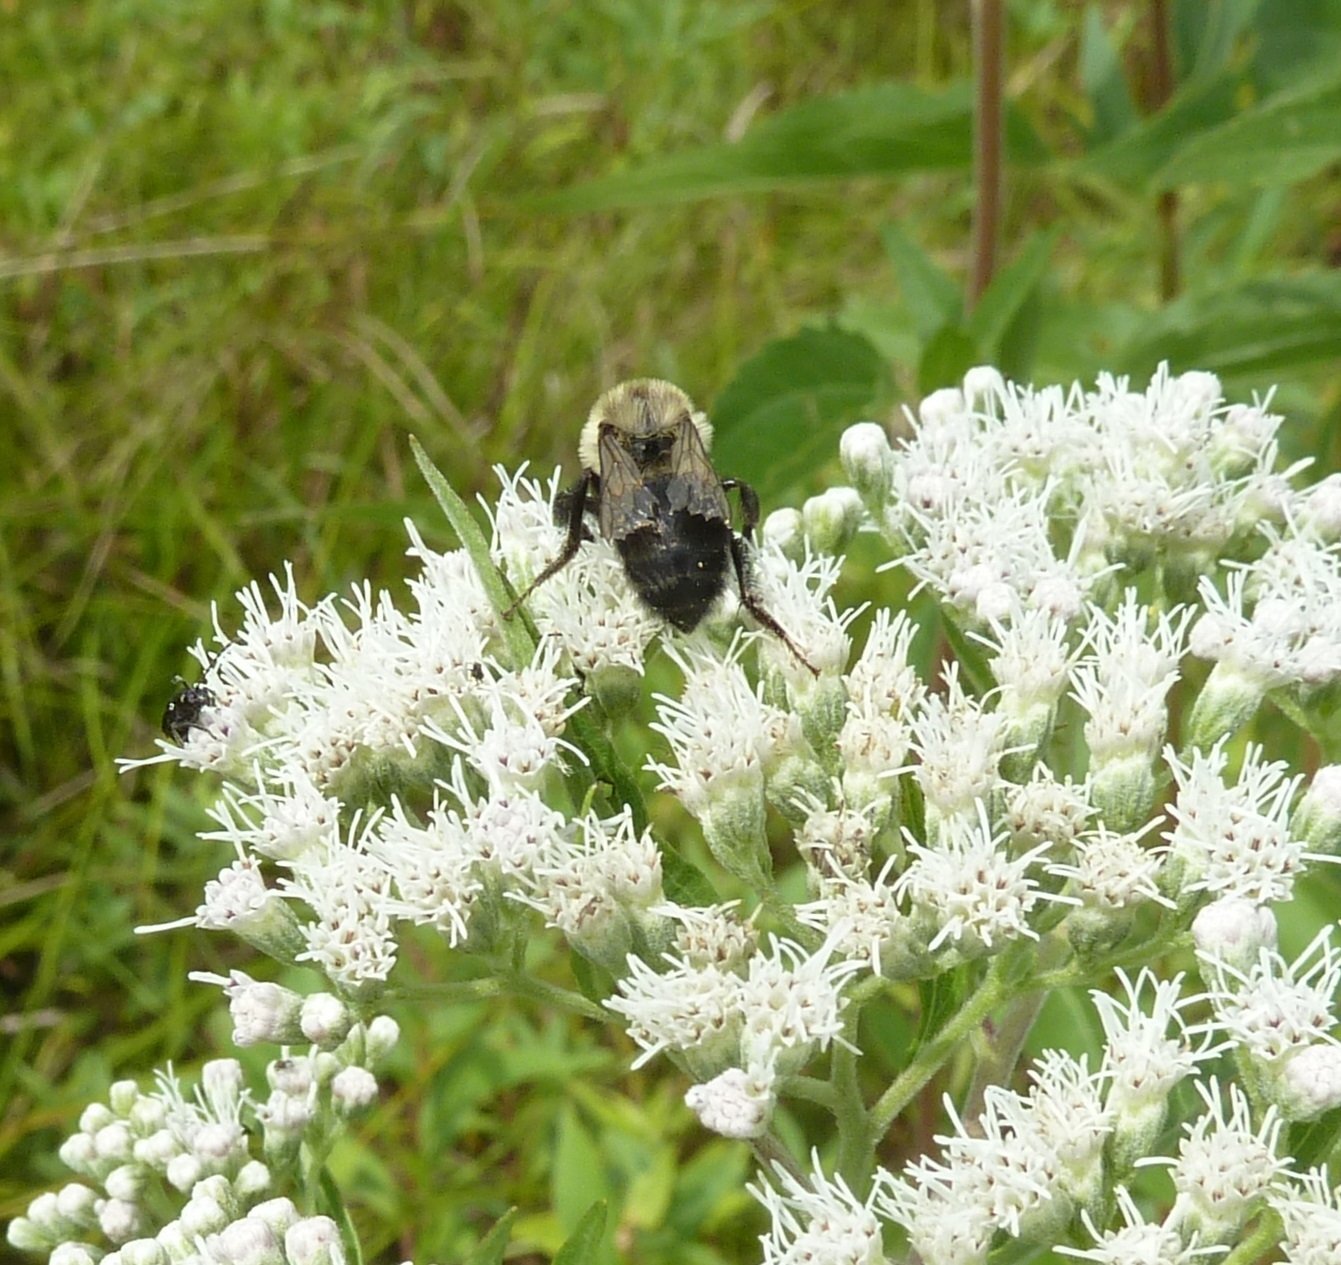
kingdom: Animalia
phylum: Arthropoda
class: Insecta
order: Hymenoptera
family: Apidae
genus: Bombus
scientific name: Bombus impatiens
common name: Common eastern bumble bee
